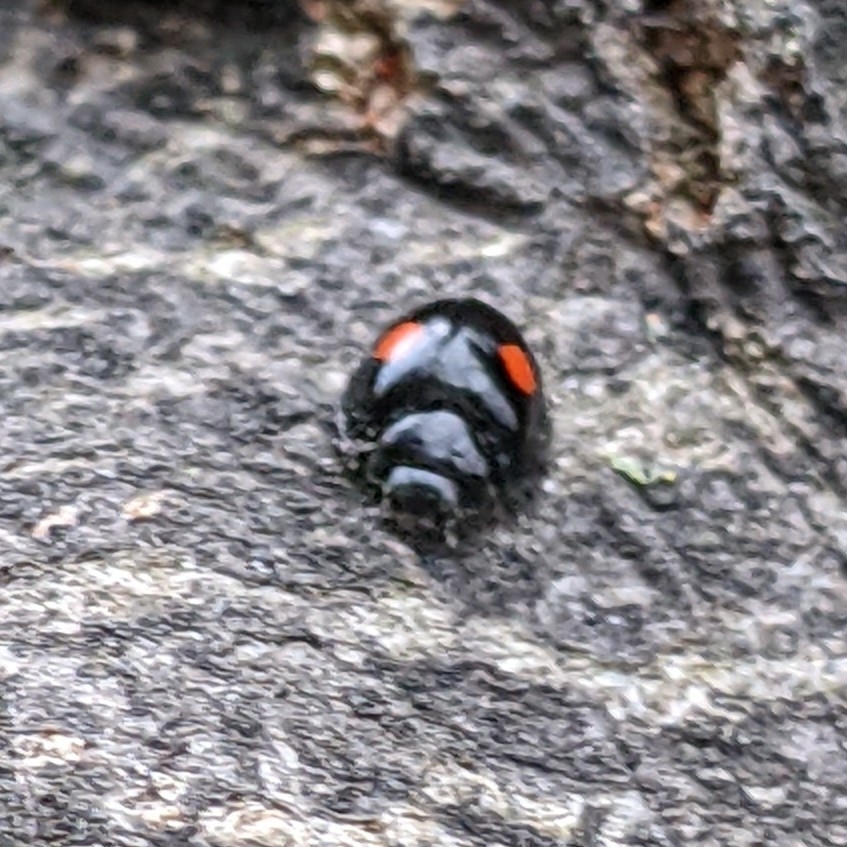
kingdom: Animalia
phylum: Arthropoda
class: Insecta
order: Coleoptera
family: Coccinellidae
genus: Chilocorus
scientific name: Chilocorus stigma
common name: Twicestabbed lady beetle
